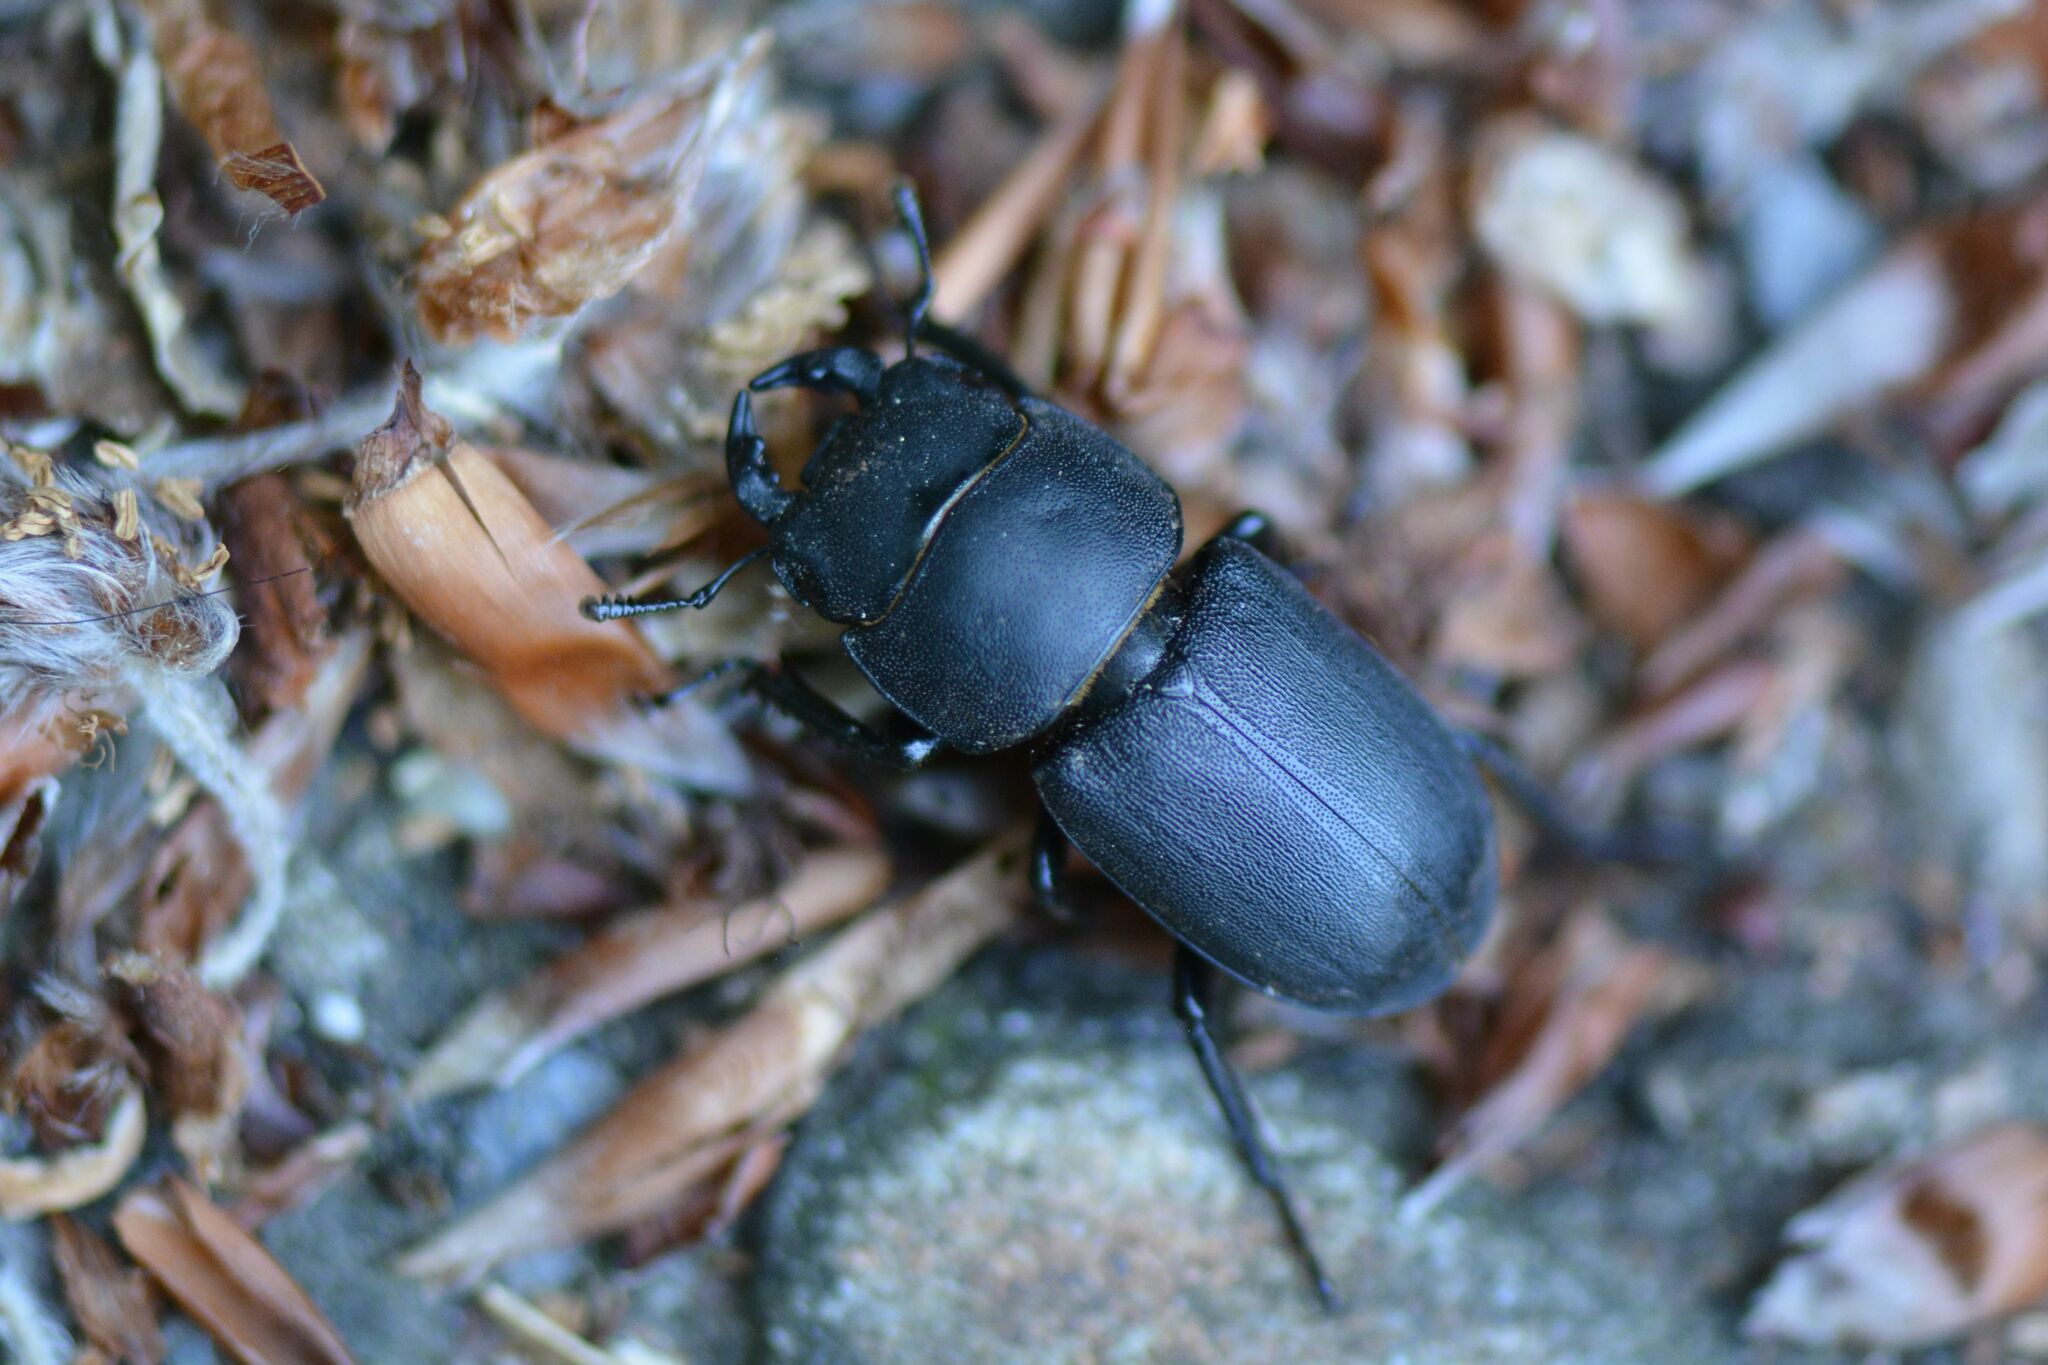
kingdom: Animalia
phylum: Arthropoda
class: Insecta
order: Coleoptera
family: Lucanidae
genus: Dorcus
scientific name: Dorcus parallelipipedus
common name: Lesser stag beetle
